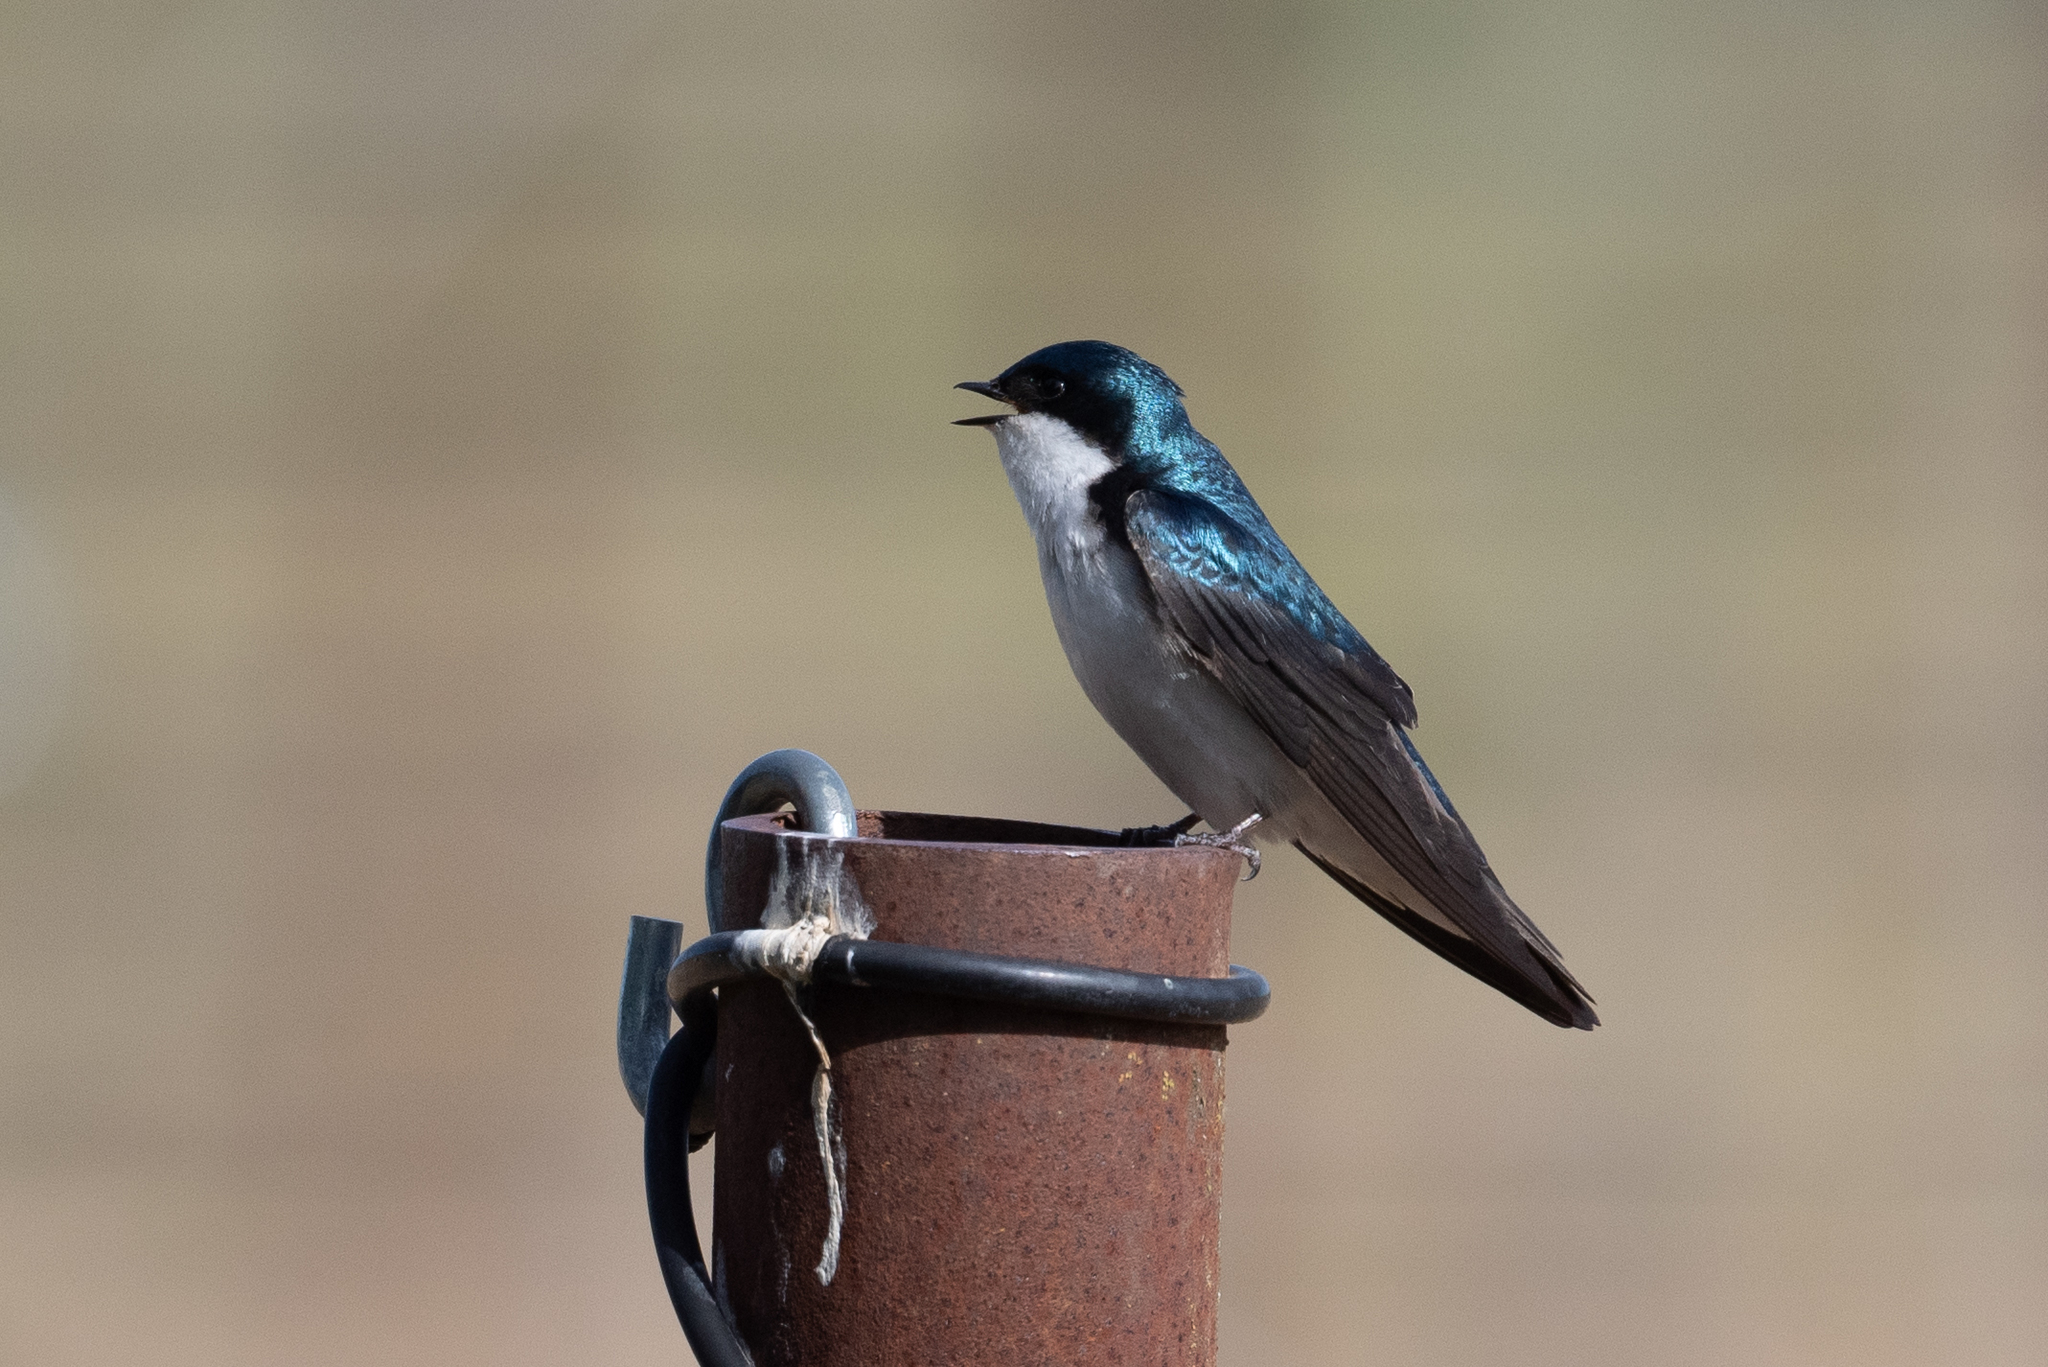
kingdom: Animalia
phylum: Chordata
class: Aves
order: Passeriformes
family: Hirundinidae
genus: Tachycineta
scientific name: Tachycineta bicolor
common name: Tree swallow
